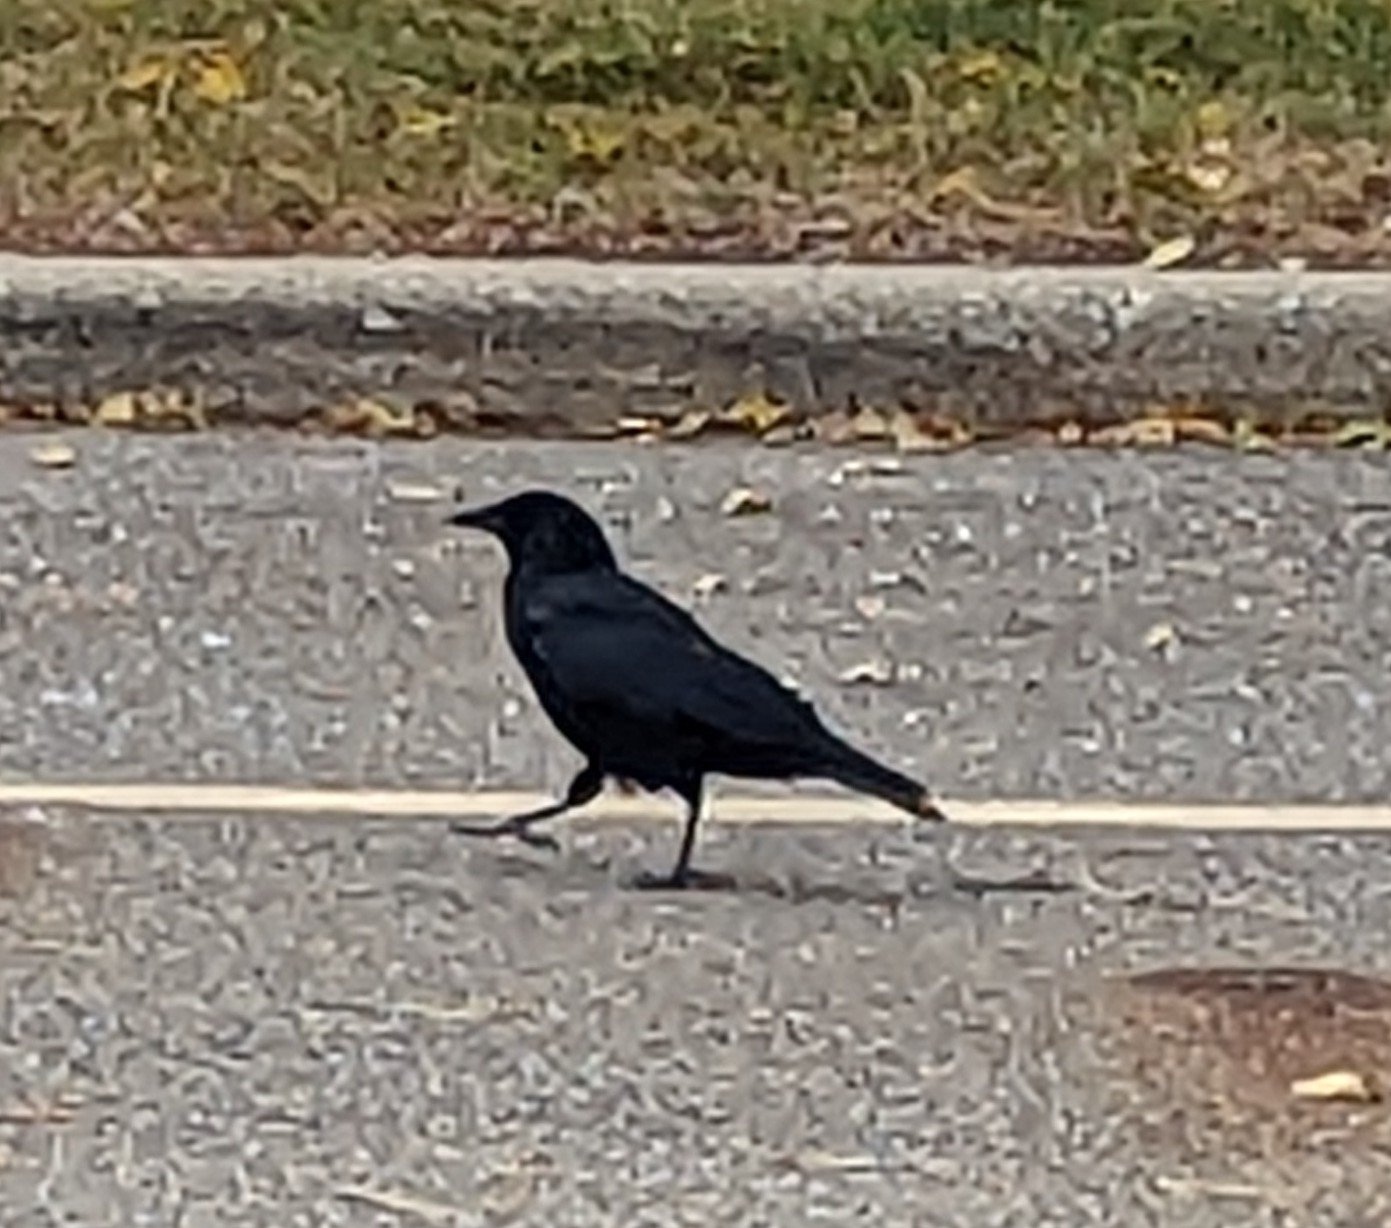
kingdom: Animalia
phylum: Chordata
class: Aves
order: Passeriformes
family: Corvidae
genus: Corvus
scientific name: Corvus brachyrhynchos
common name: American crow
